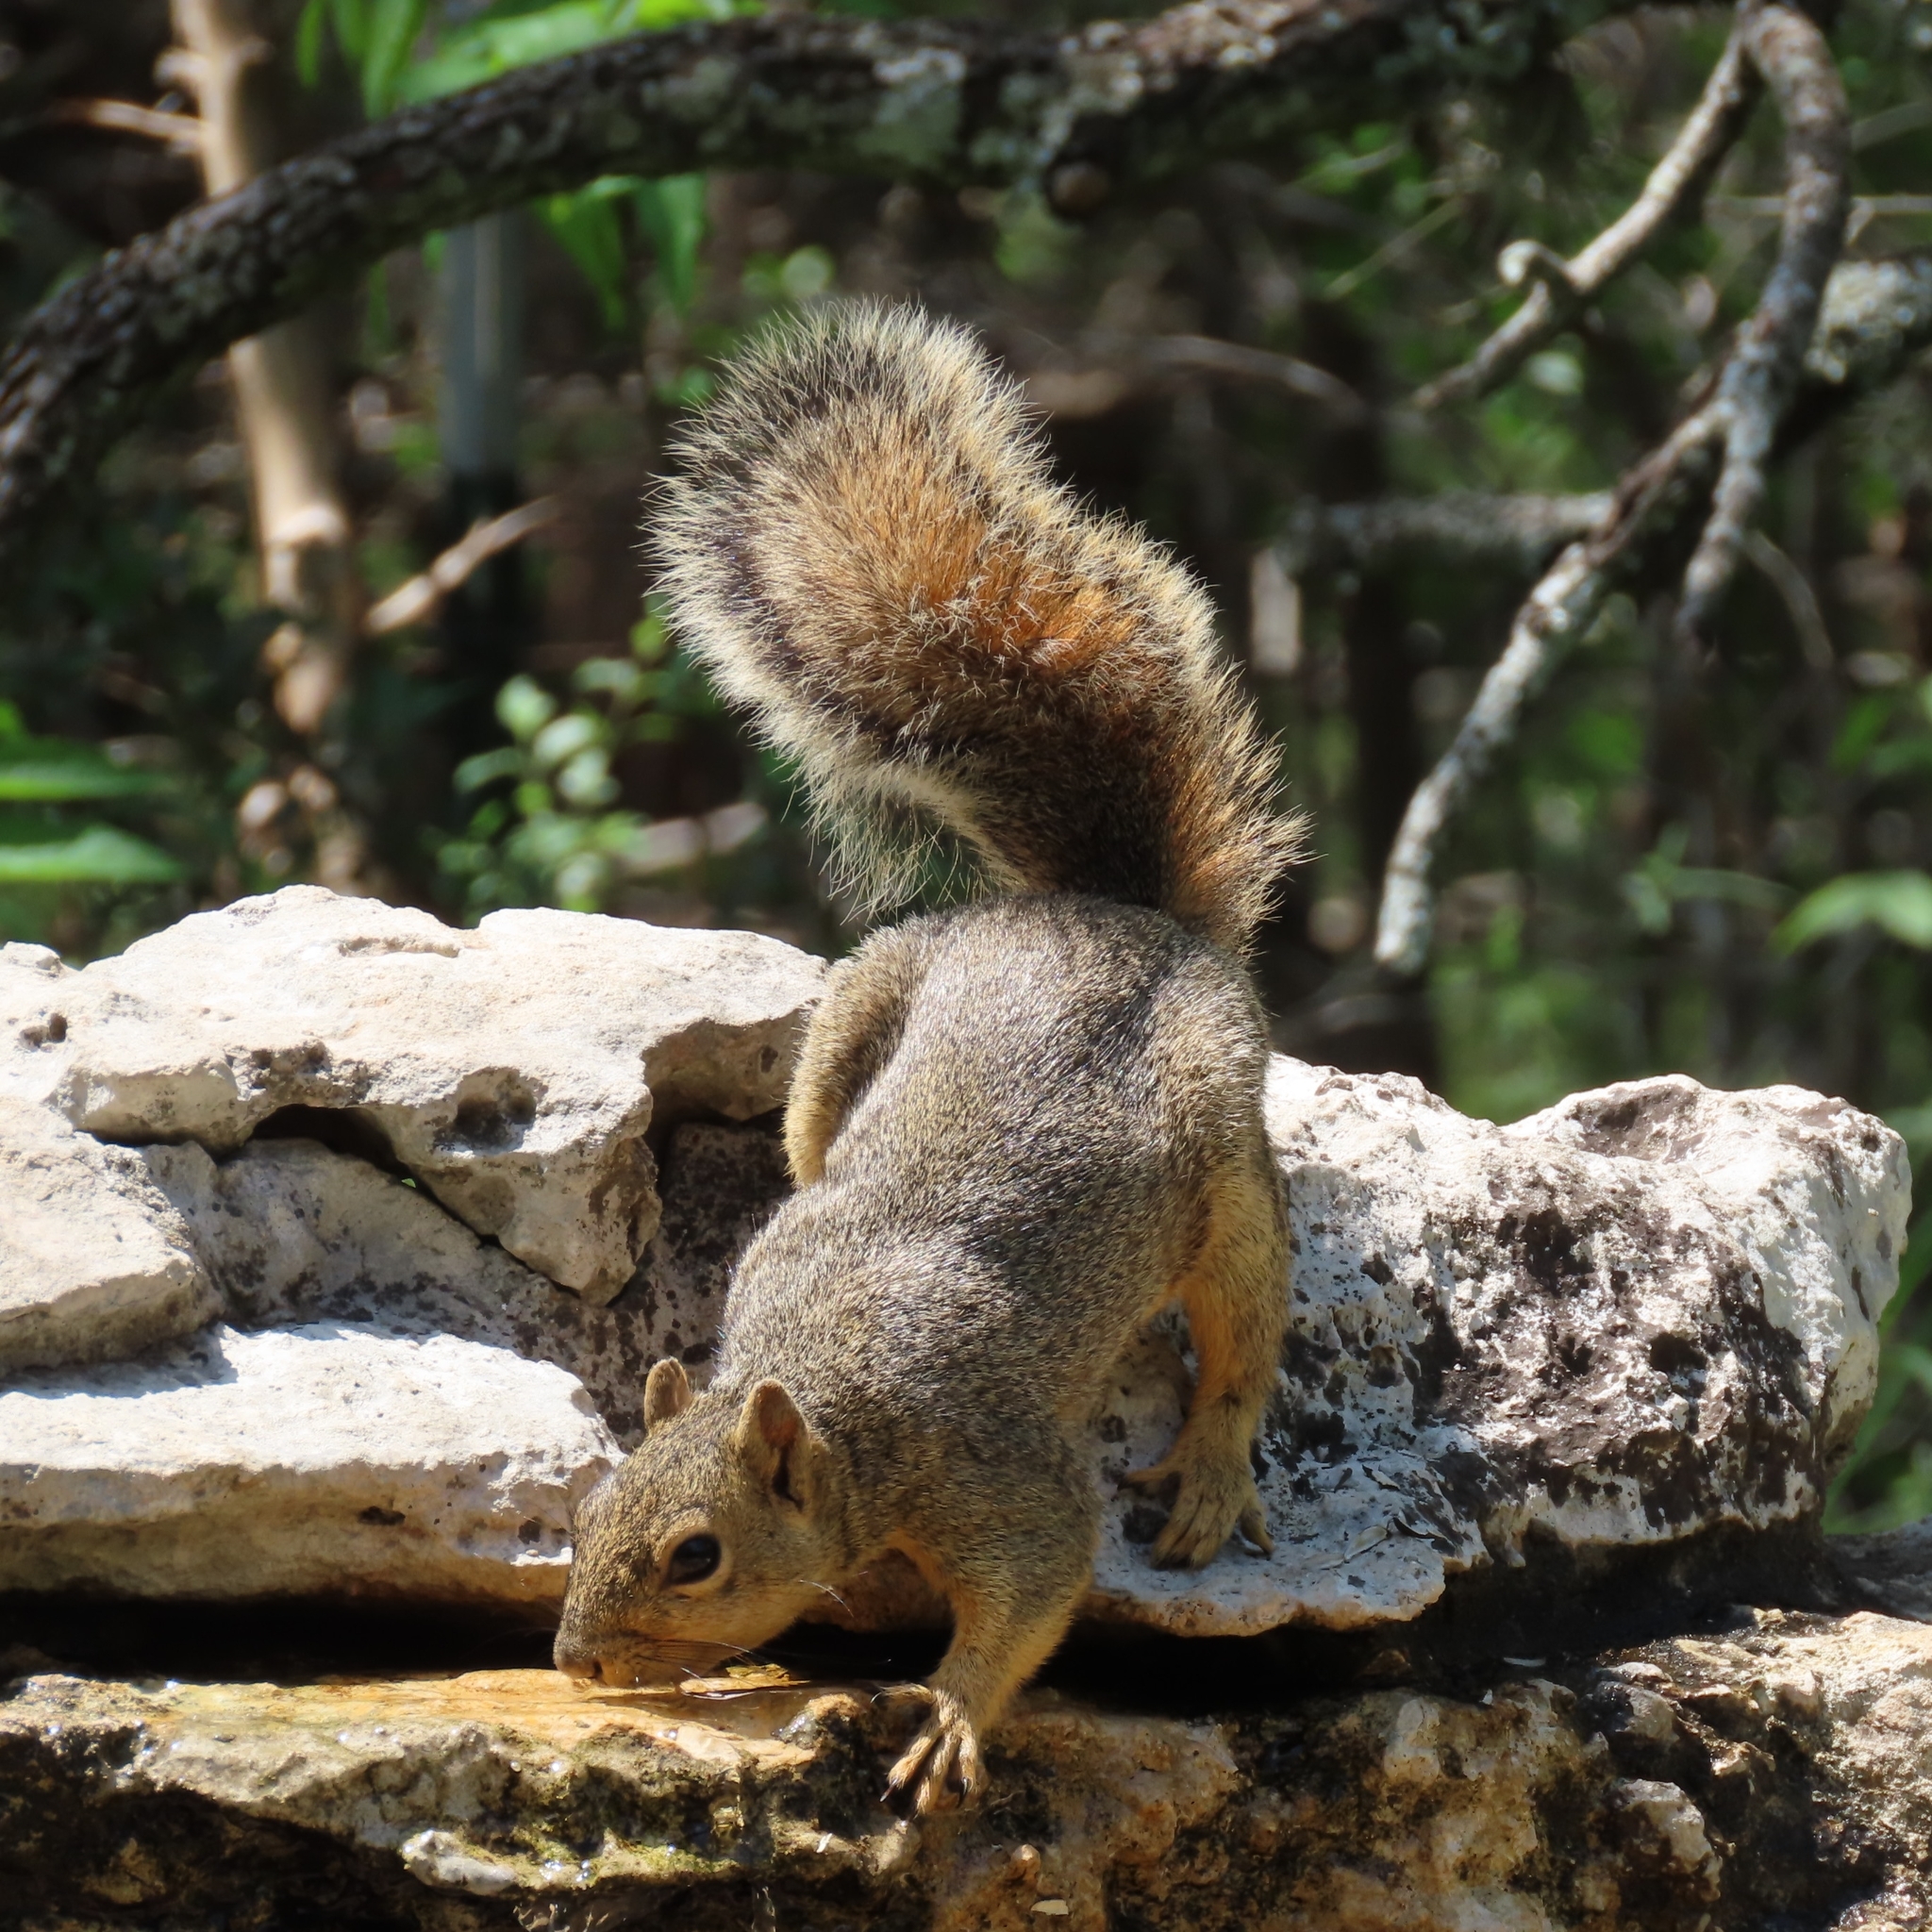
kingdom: Animalia
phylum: Chordata
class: Mammalia
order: Rodentia
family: Sciuridae
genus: Sciurus
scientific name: Sciurus niger
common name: Fox squirrel
